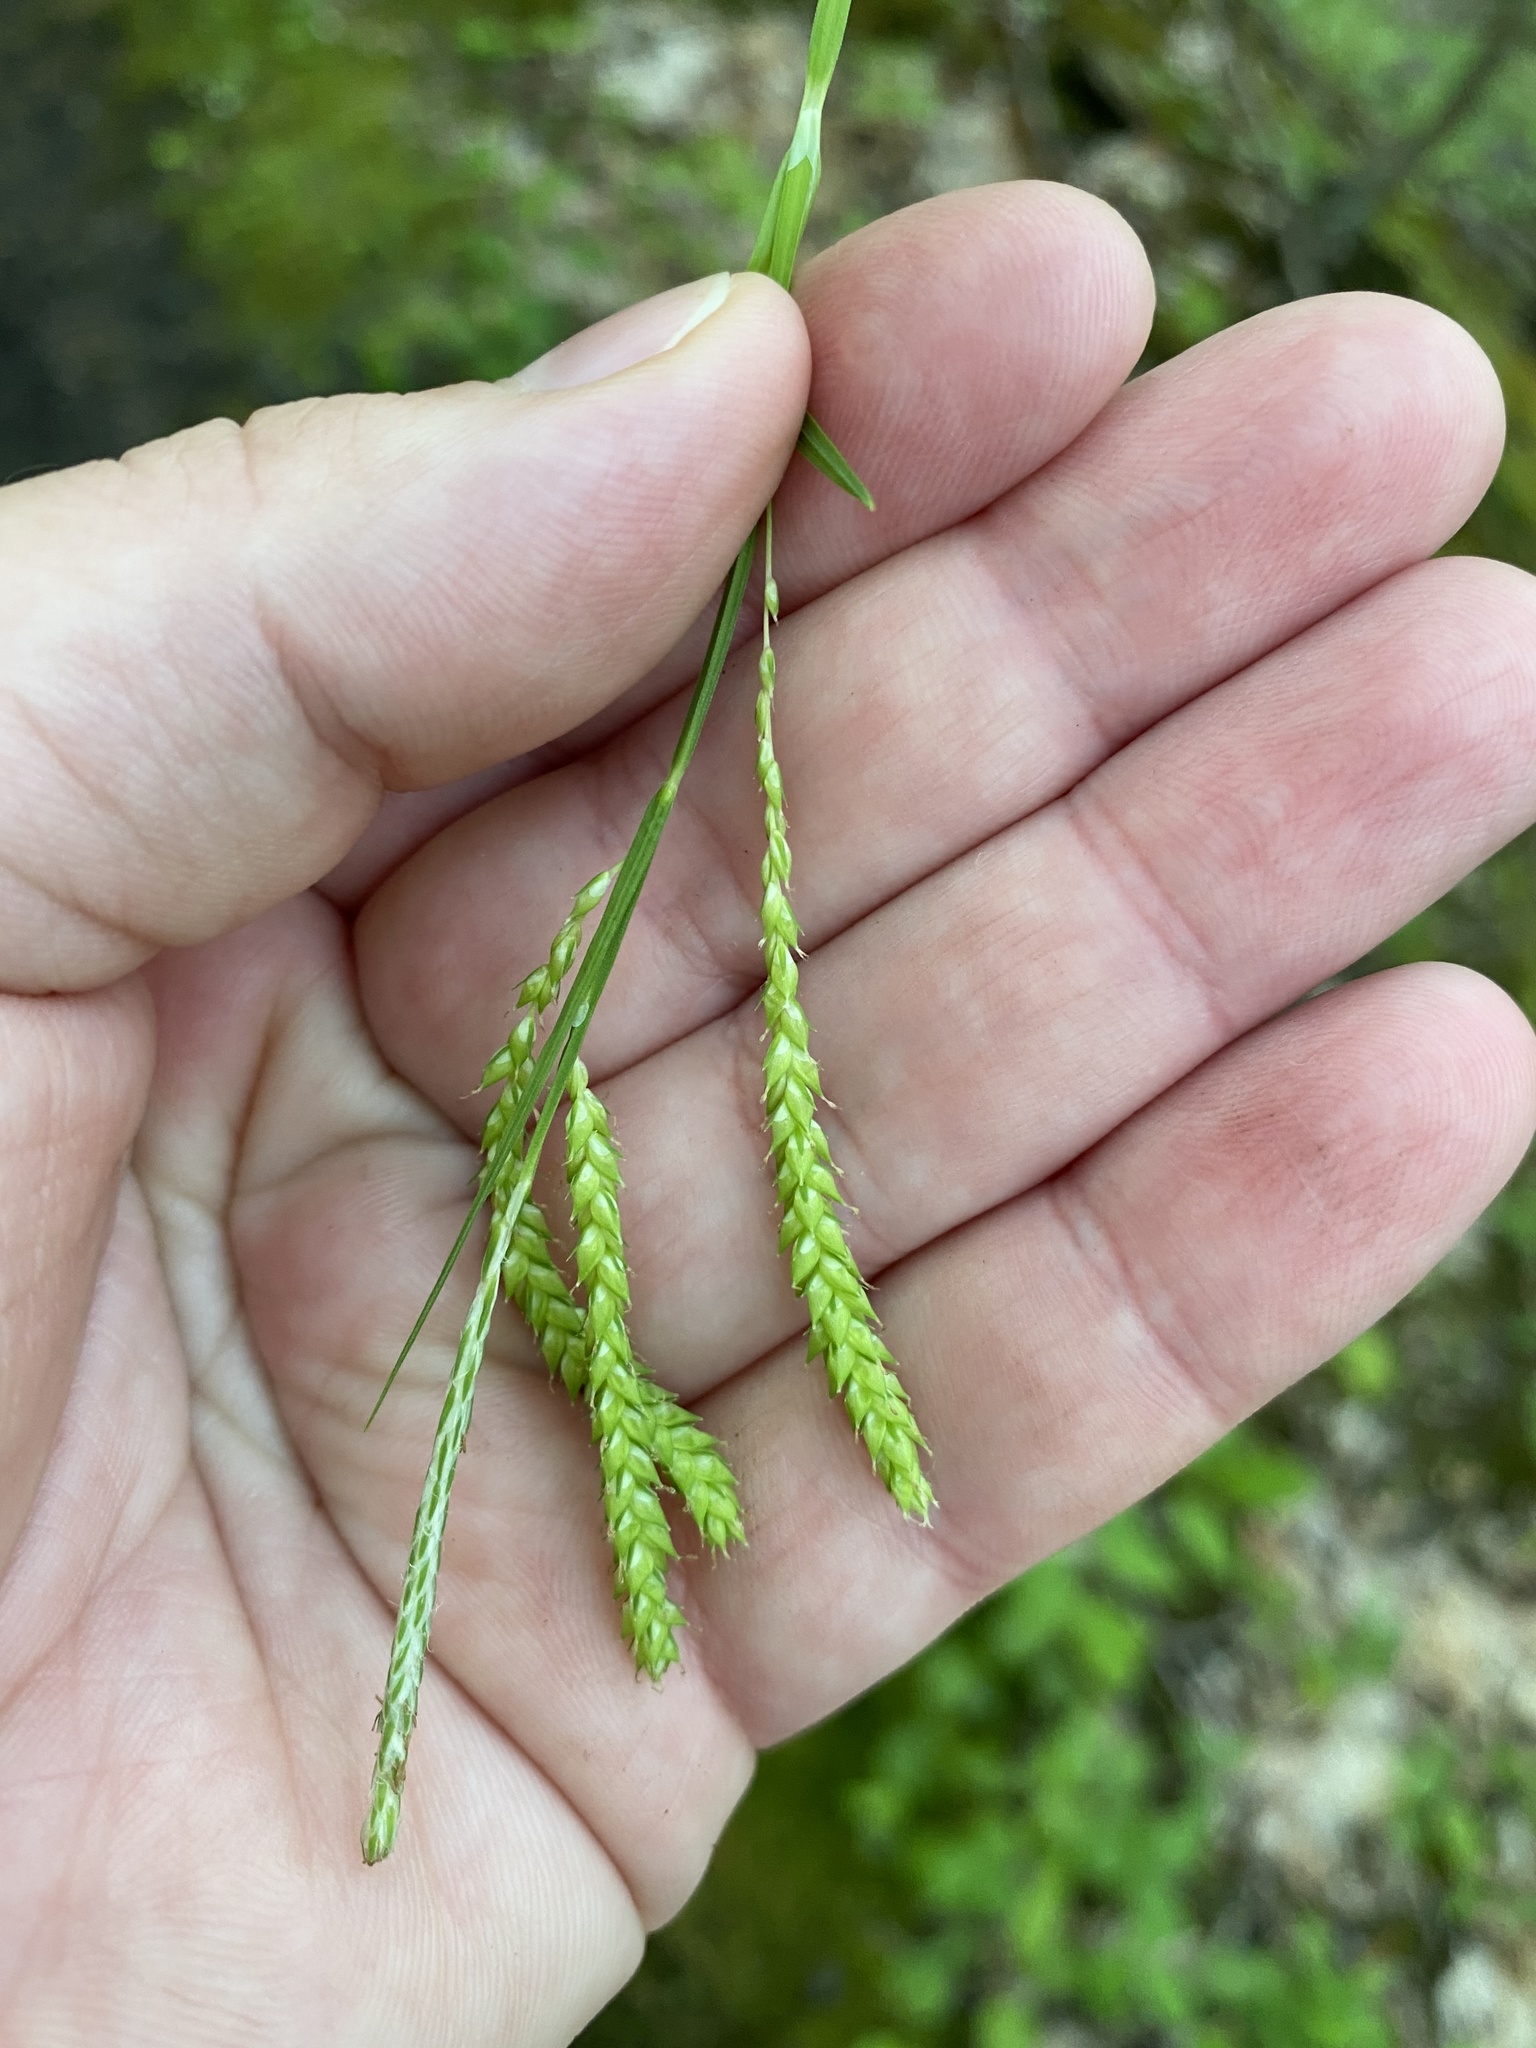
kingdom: Plantae
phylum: Tracheophyta
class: Liliopsida
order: Poales
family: Cyperaceae
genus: Carex
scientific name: Carex prasina
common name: Drooping sedge
